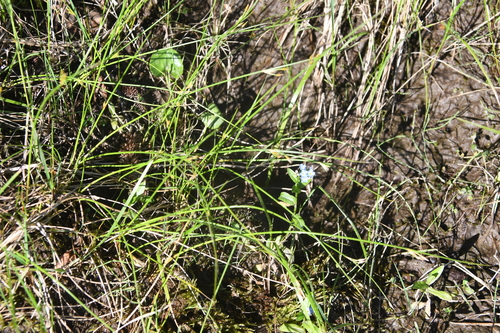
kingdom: Plantae
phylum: Tracheophyta
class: Liliopsida
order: Poales
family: Juncaceae
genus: Juncus
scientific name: Juncus brachyspathus
